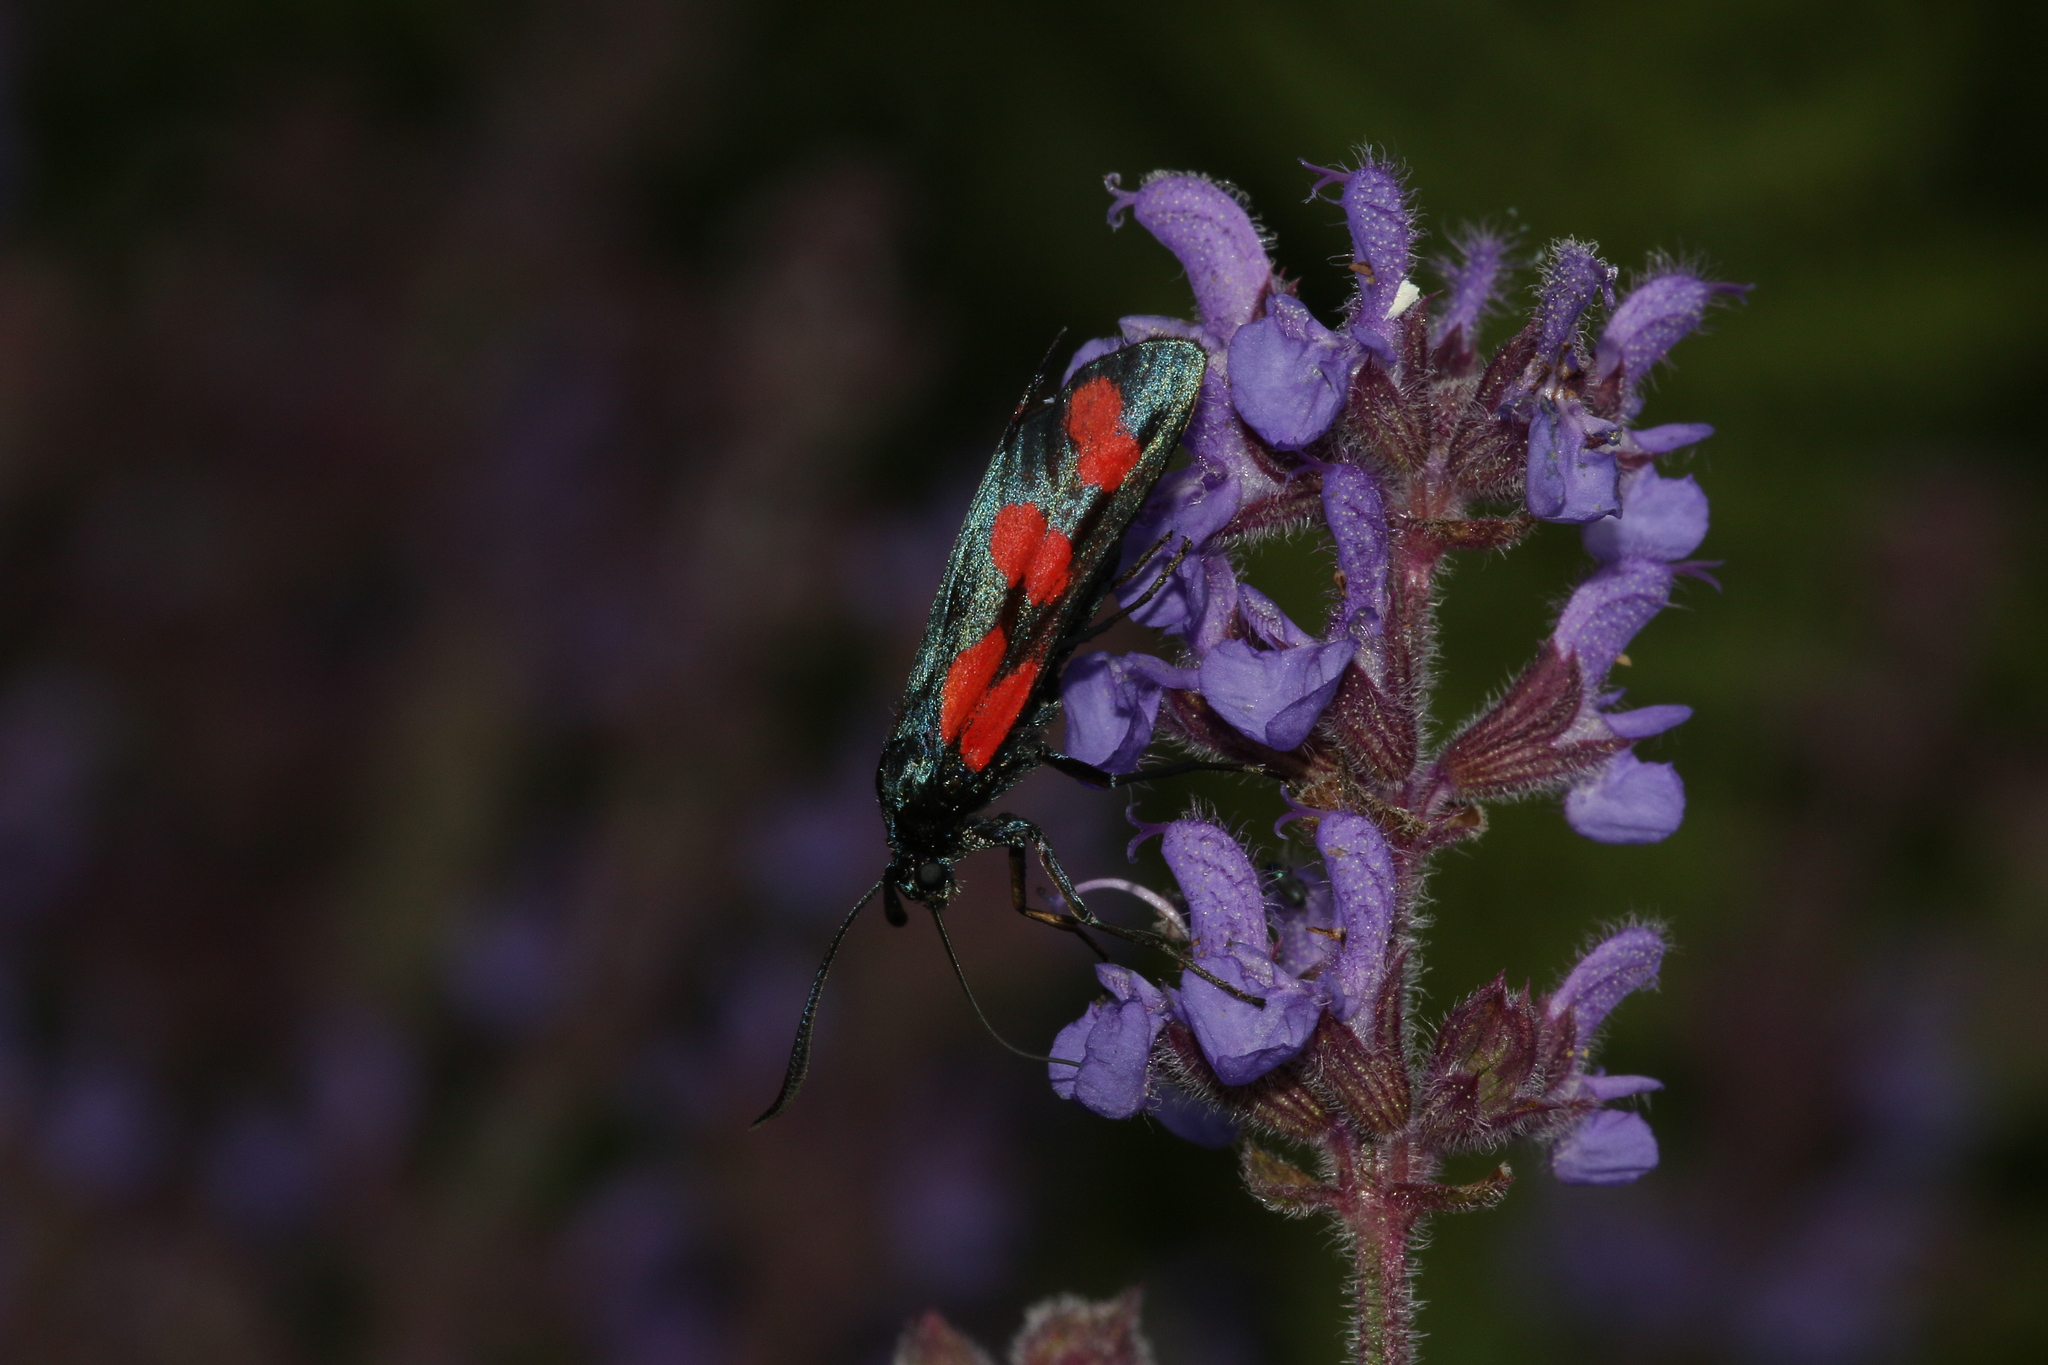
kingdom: Animalia
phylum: Arthropoda
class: Insecta
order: Lepidoptera
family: Zygaenidae
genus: Zygaena
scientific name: Zygaena filipendulae
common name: Six-spot burnet
